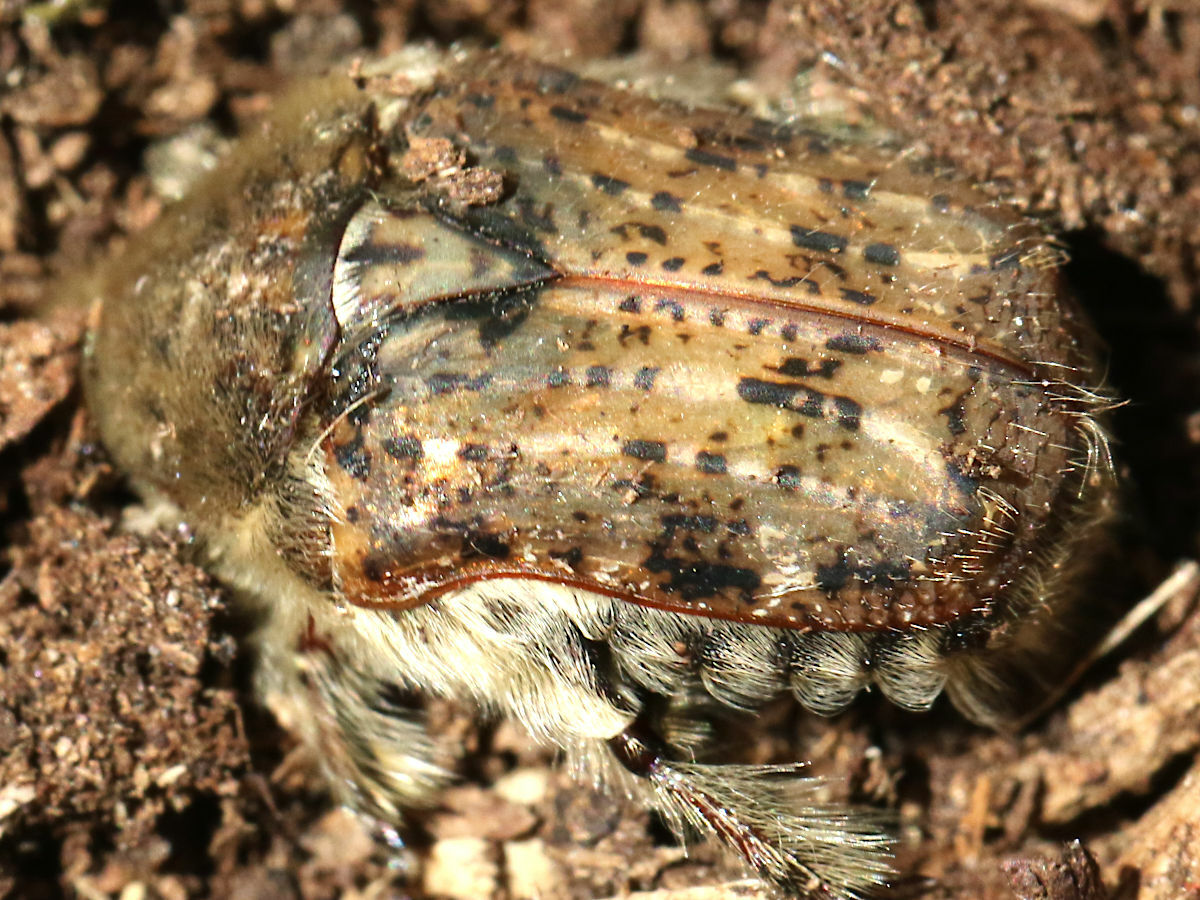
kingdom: Animalia
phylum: Arthropoda
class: Insecta
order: Coleoptera
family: Scarabaeidae
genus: Euphoria
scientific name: Euphoria inda
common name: Bumble flower beetle
